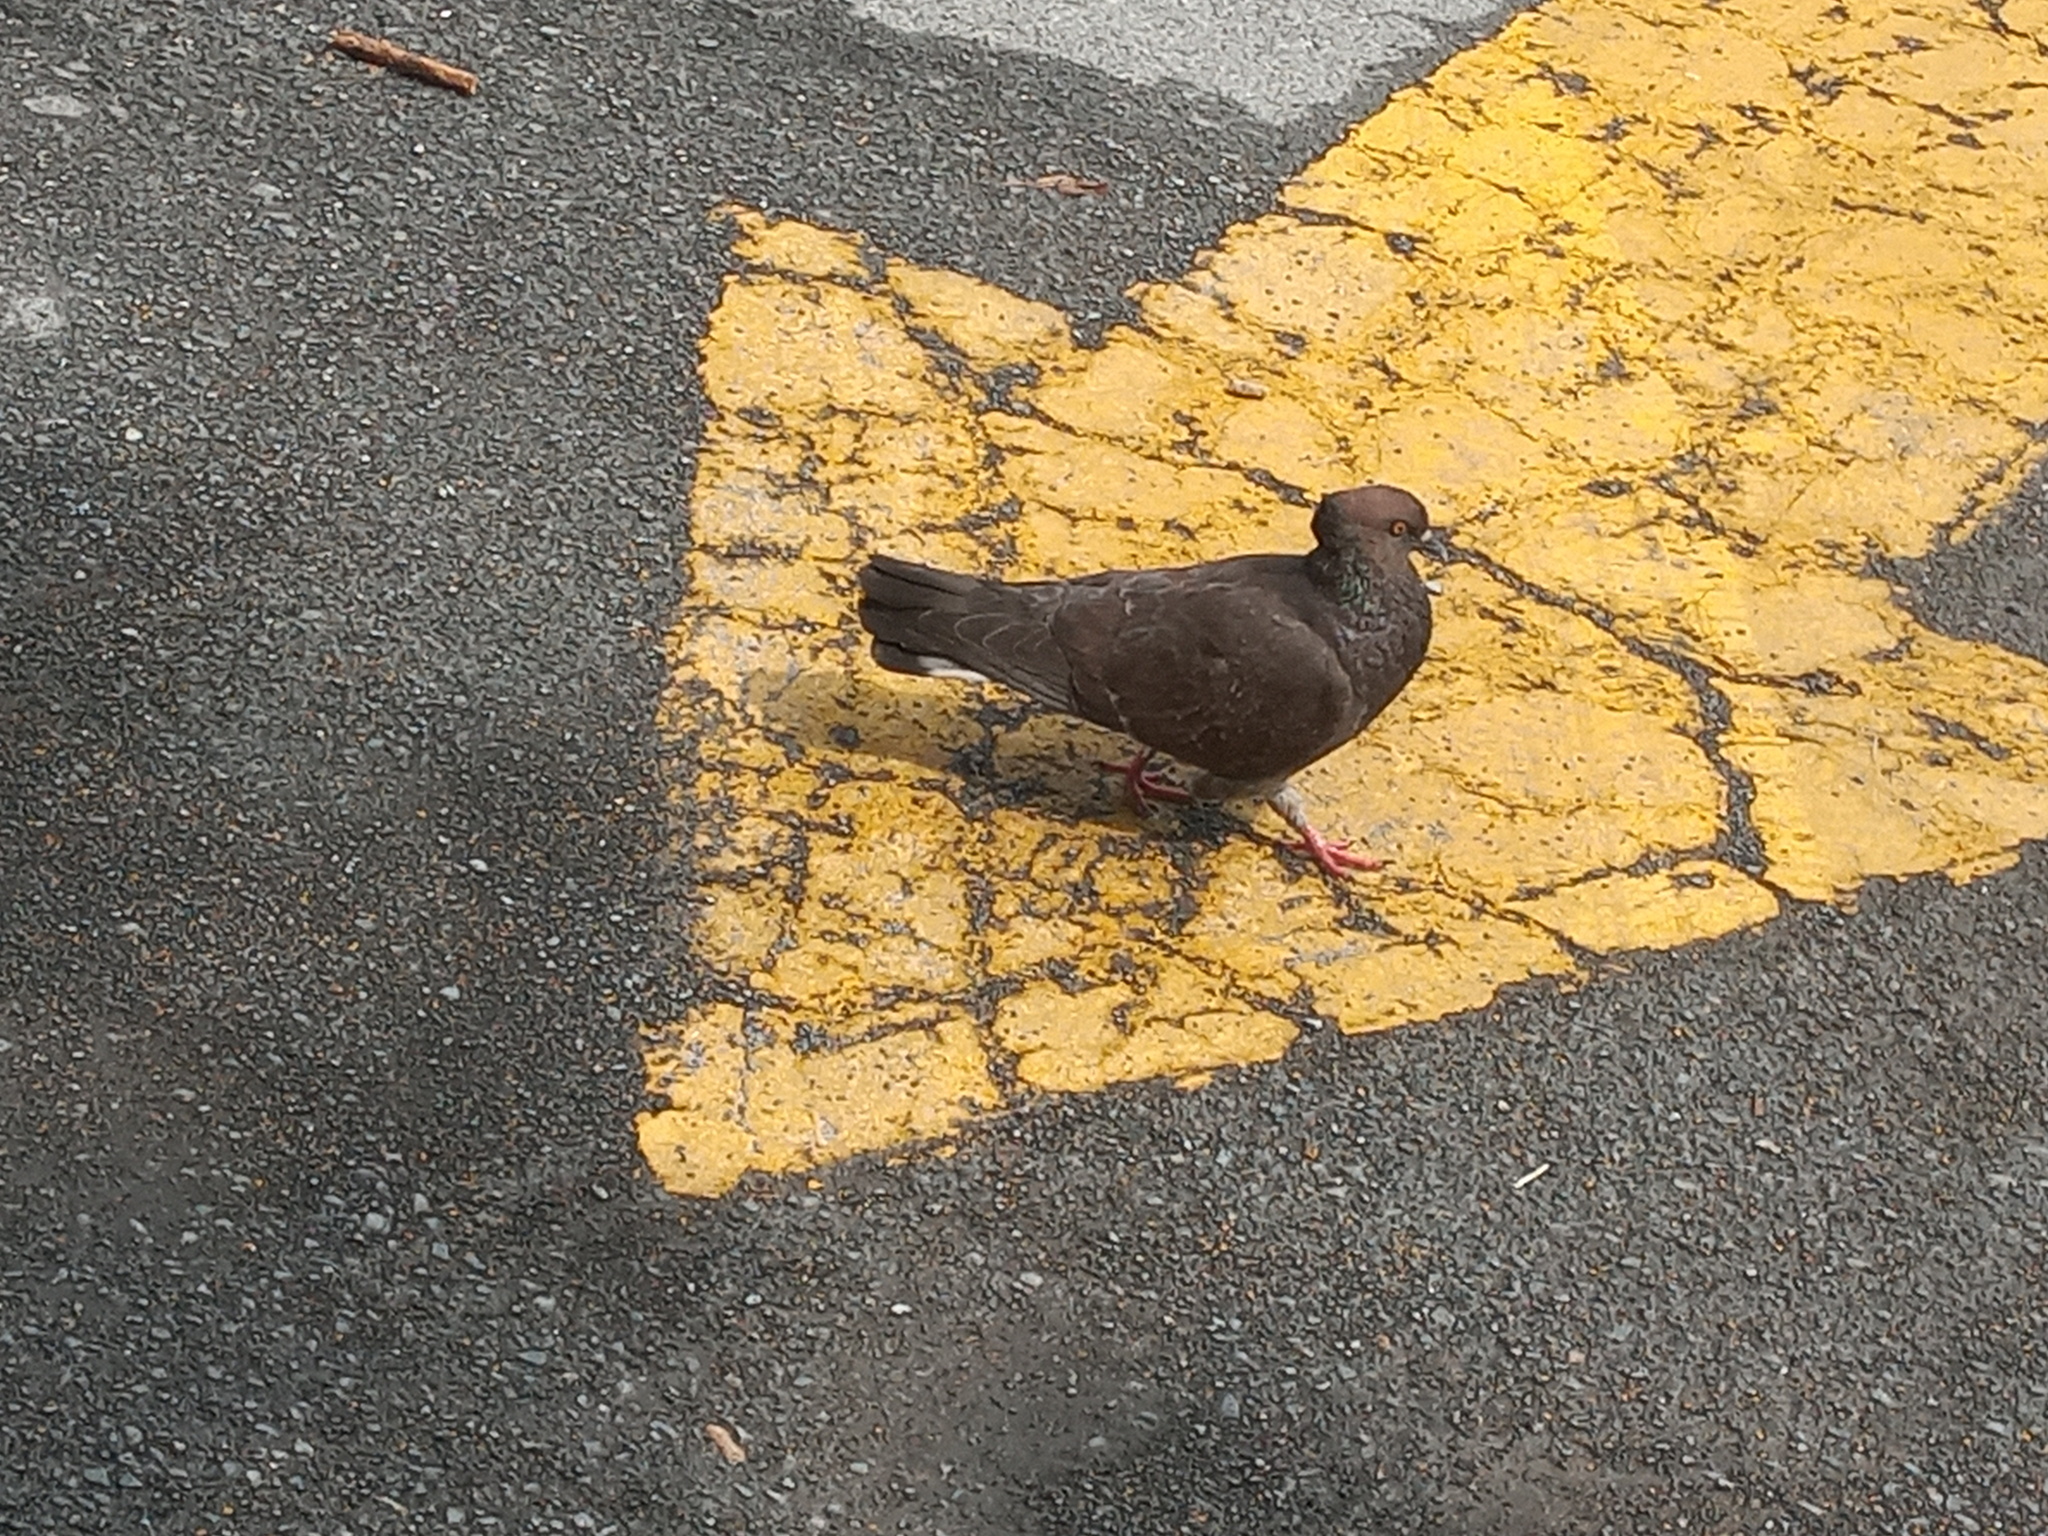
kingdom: Animalia
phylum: Chordata
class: Aves
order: Columbiformes
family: Columbidae
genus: Columba
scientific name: Columba livia
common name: Rock pigeon
